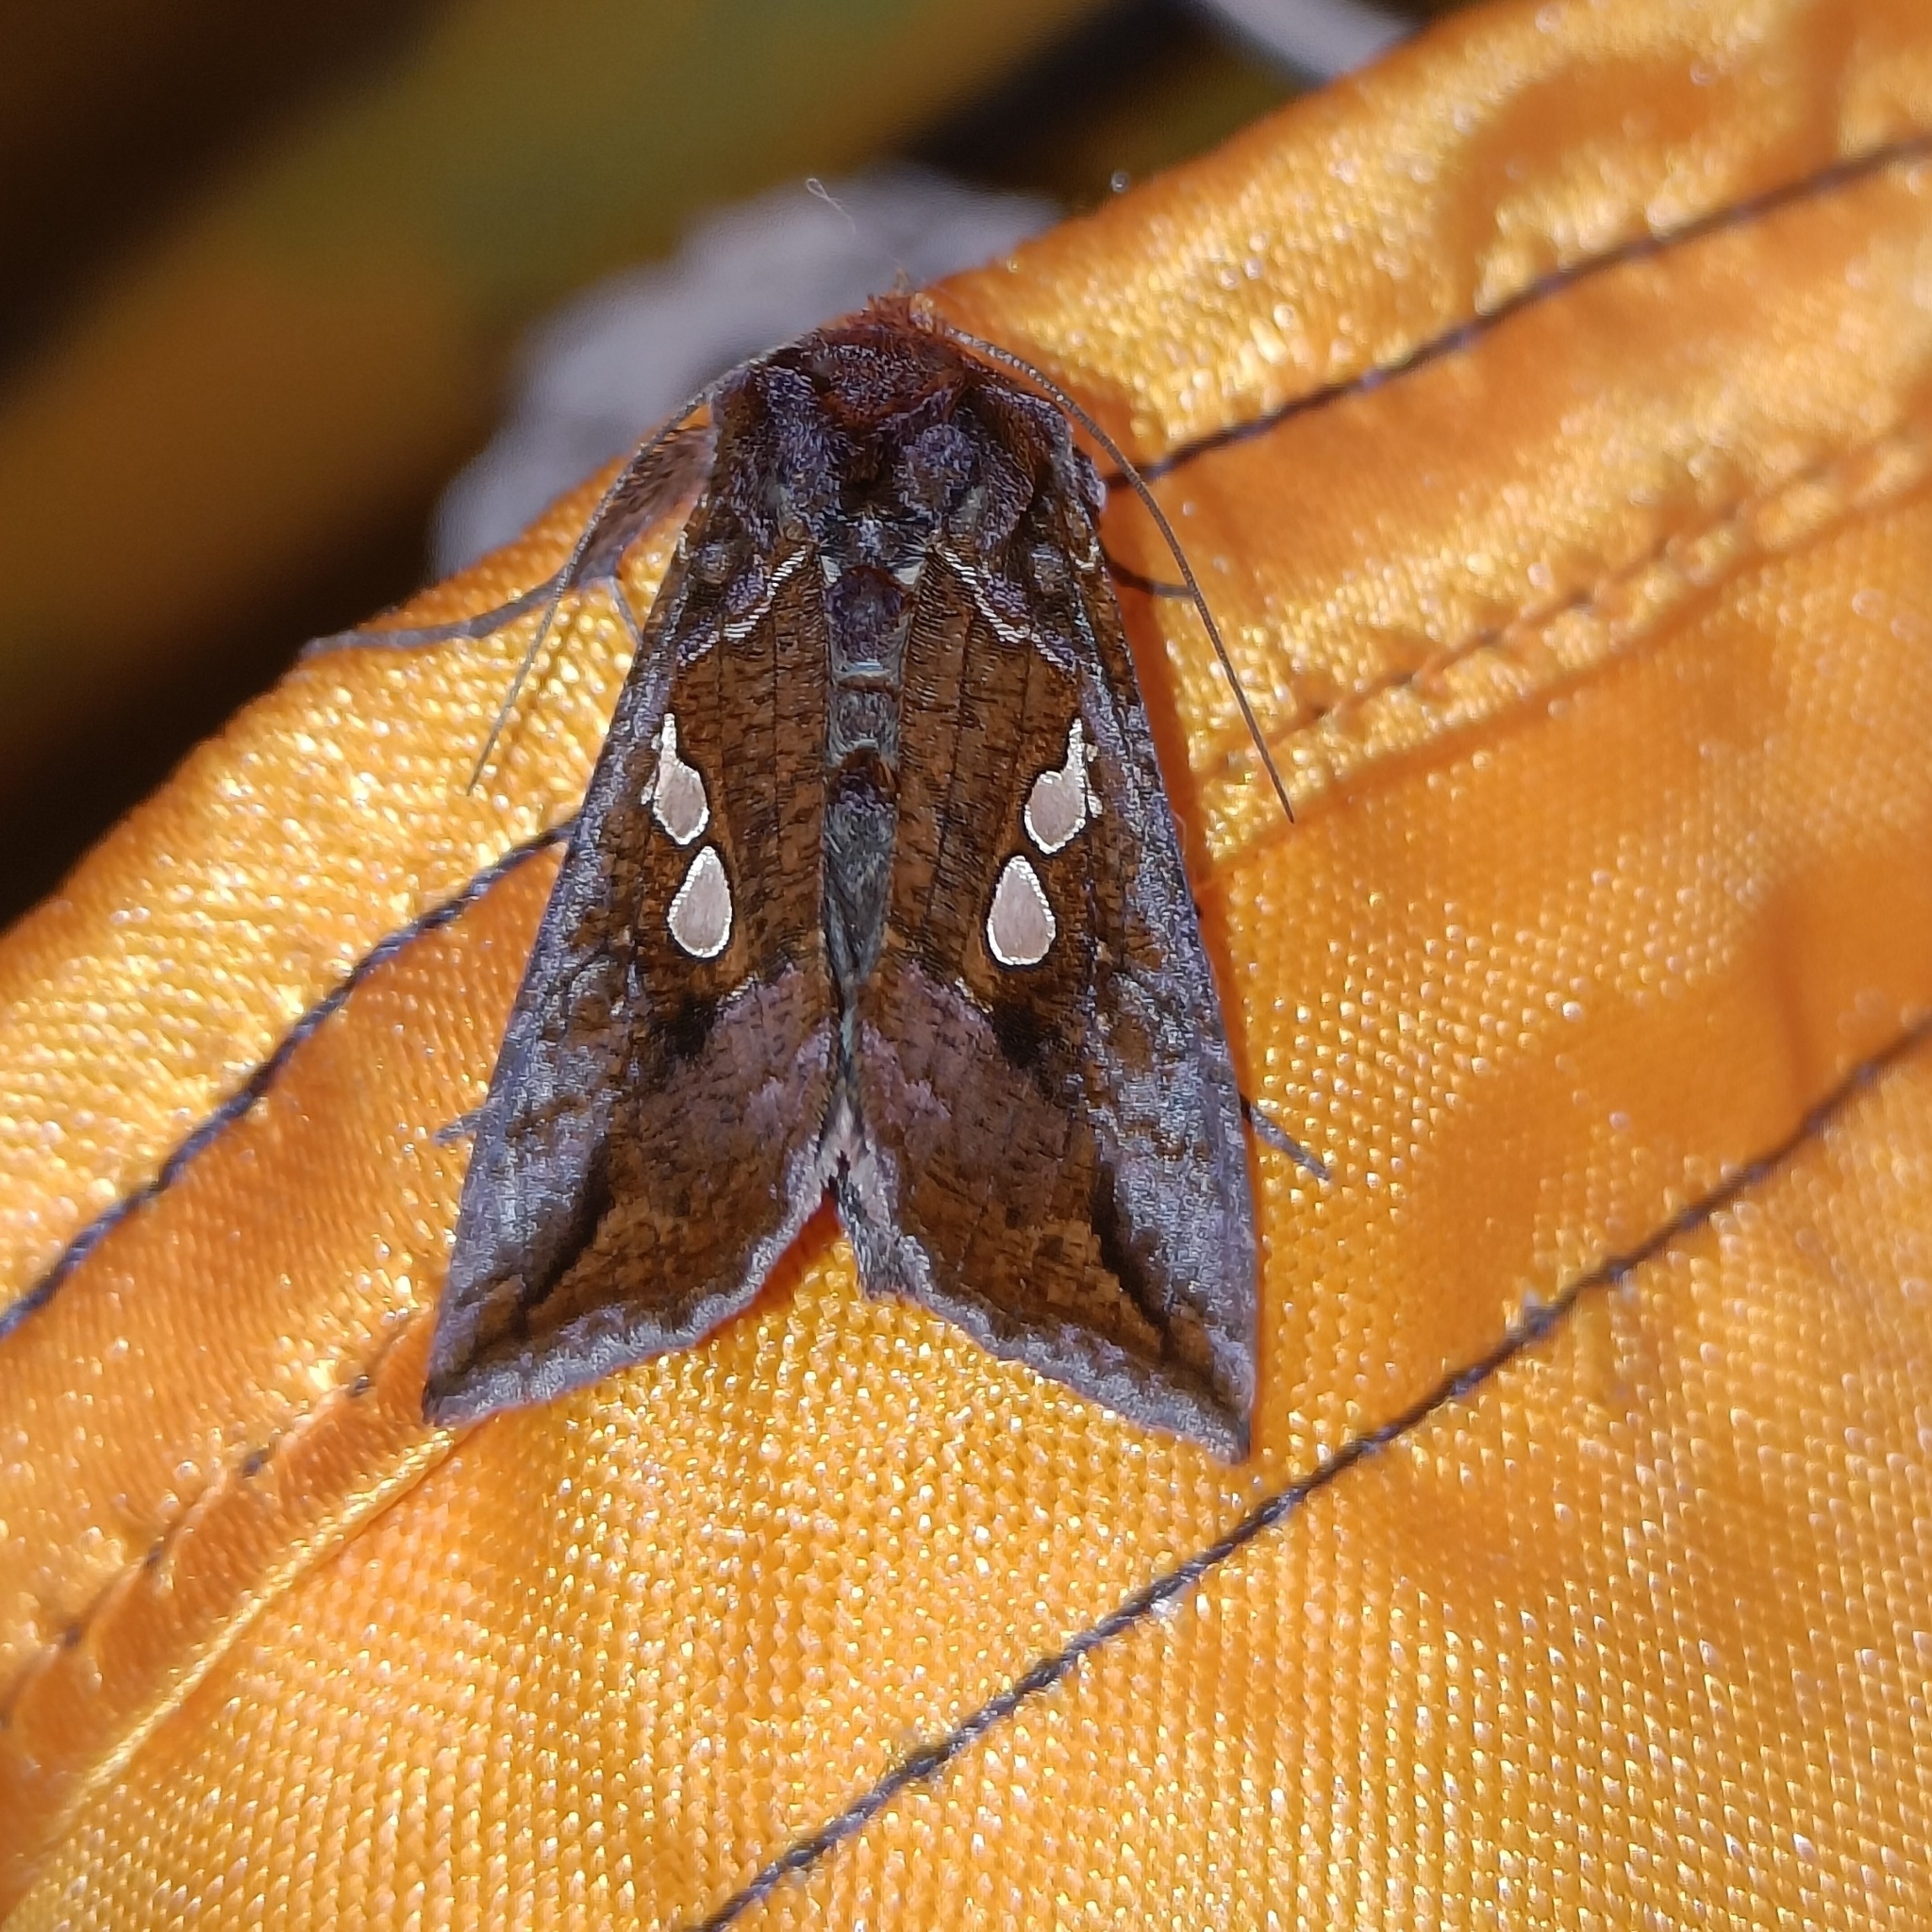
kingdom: Animalia
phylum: Arthropoda
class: Insecta
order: Lepidoptera
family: Noctuidae
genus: Antoculeora
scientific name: Antoculeora ornatissima
